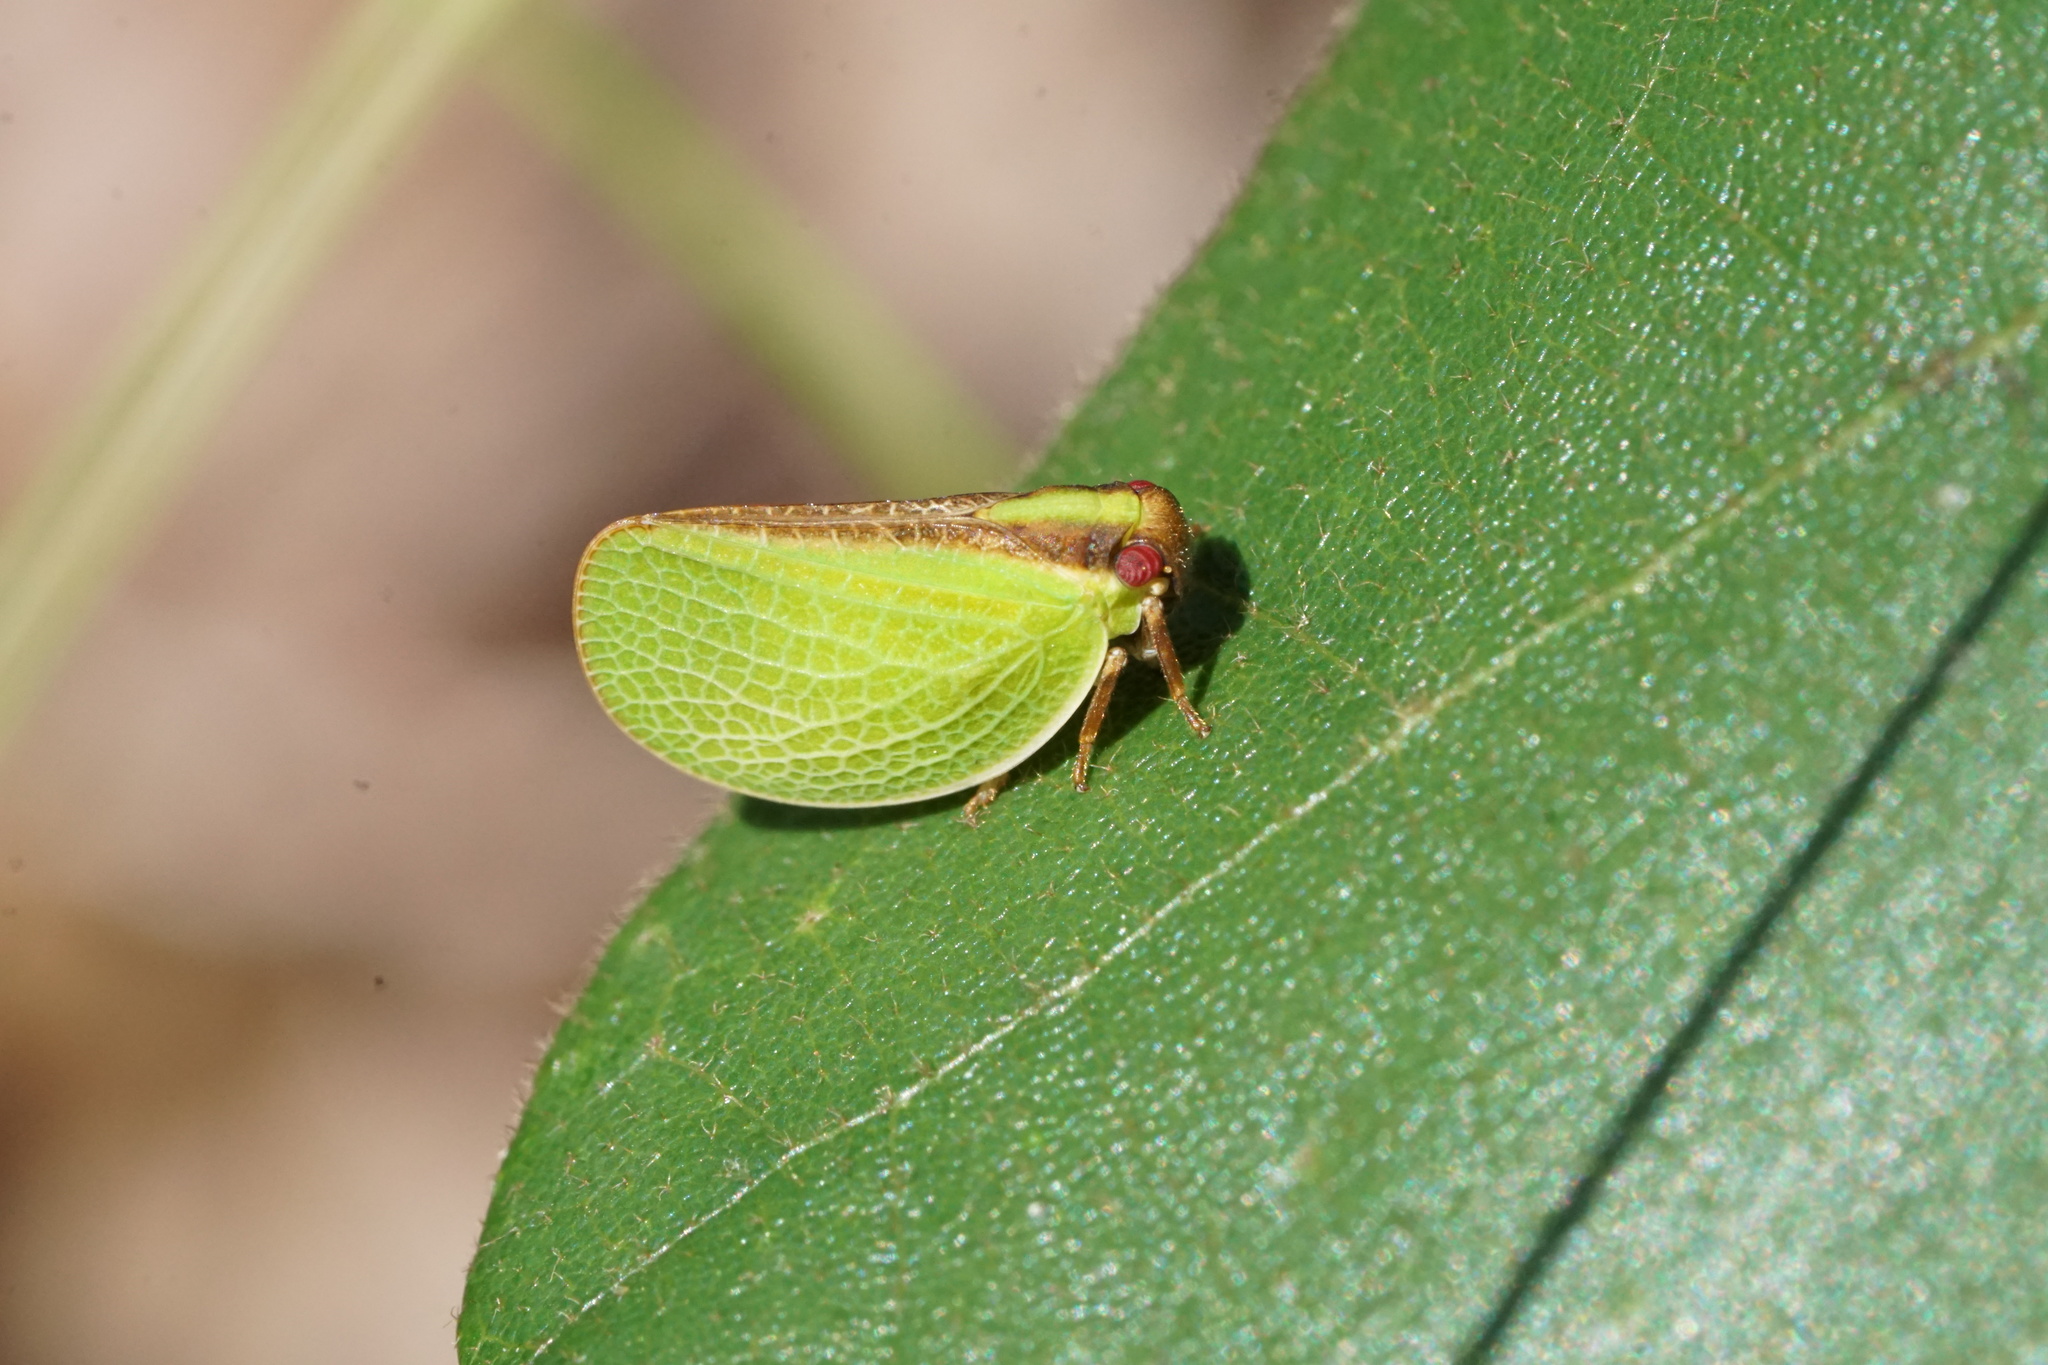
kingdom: Animalia
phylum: Arthropoda
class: Insecta
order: Hemiptera
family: Acanaloniidae
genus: Acanalonia
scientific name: Acanalonia bivittata
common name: Two-striped planthopper
